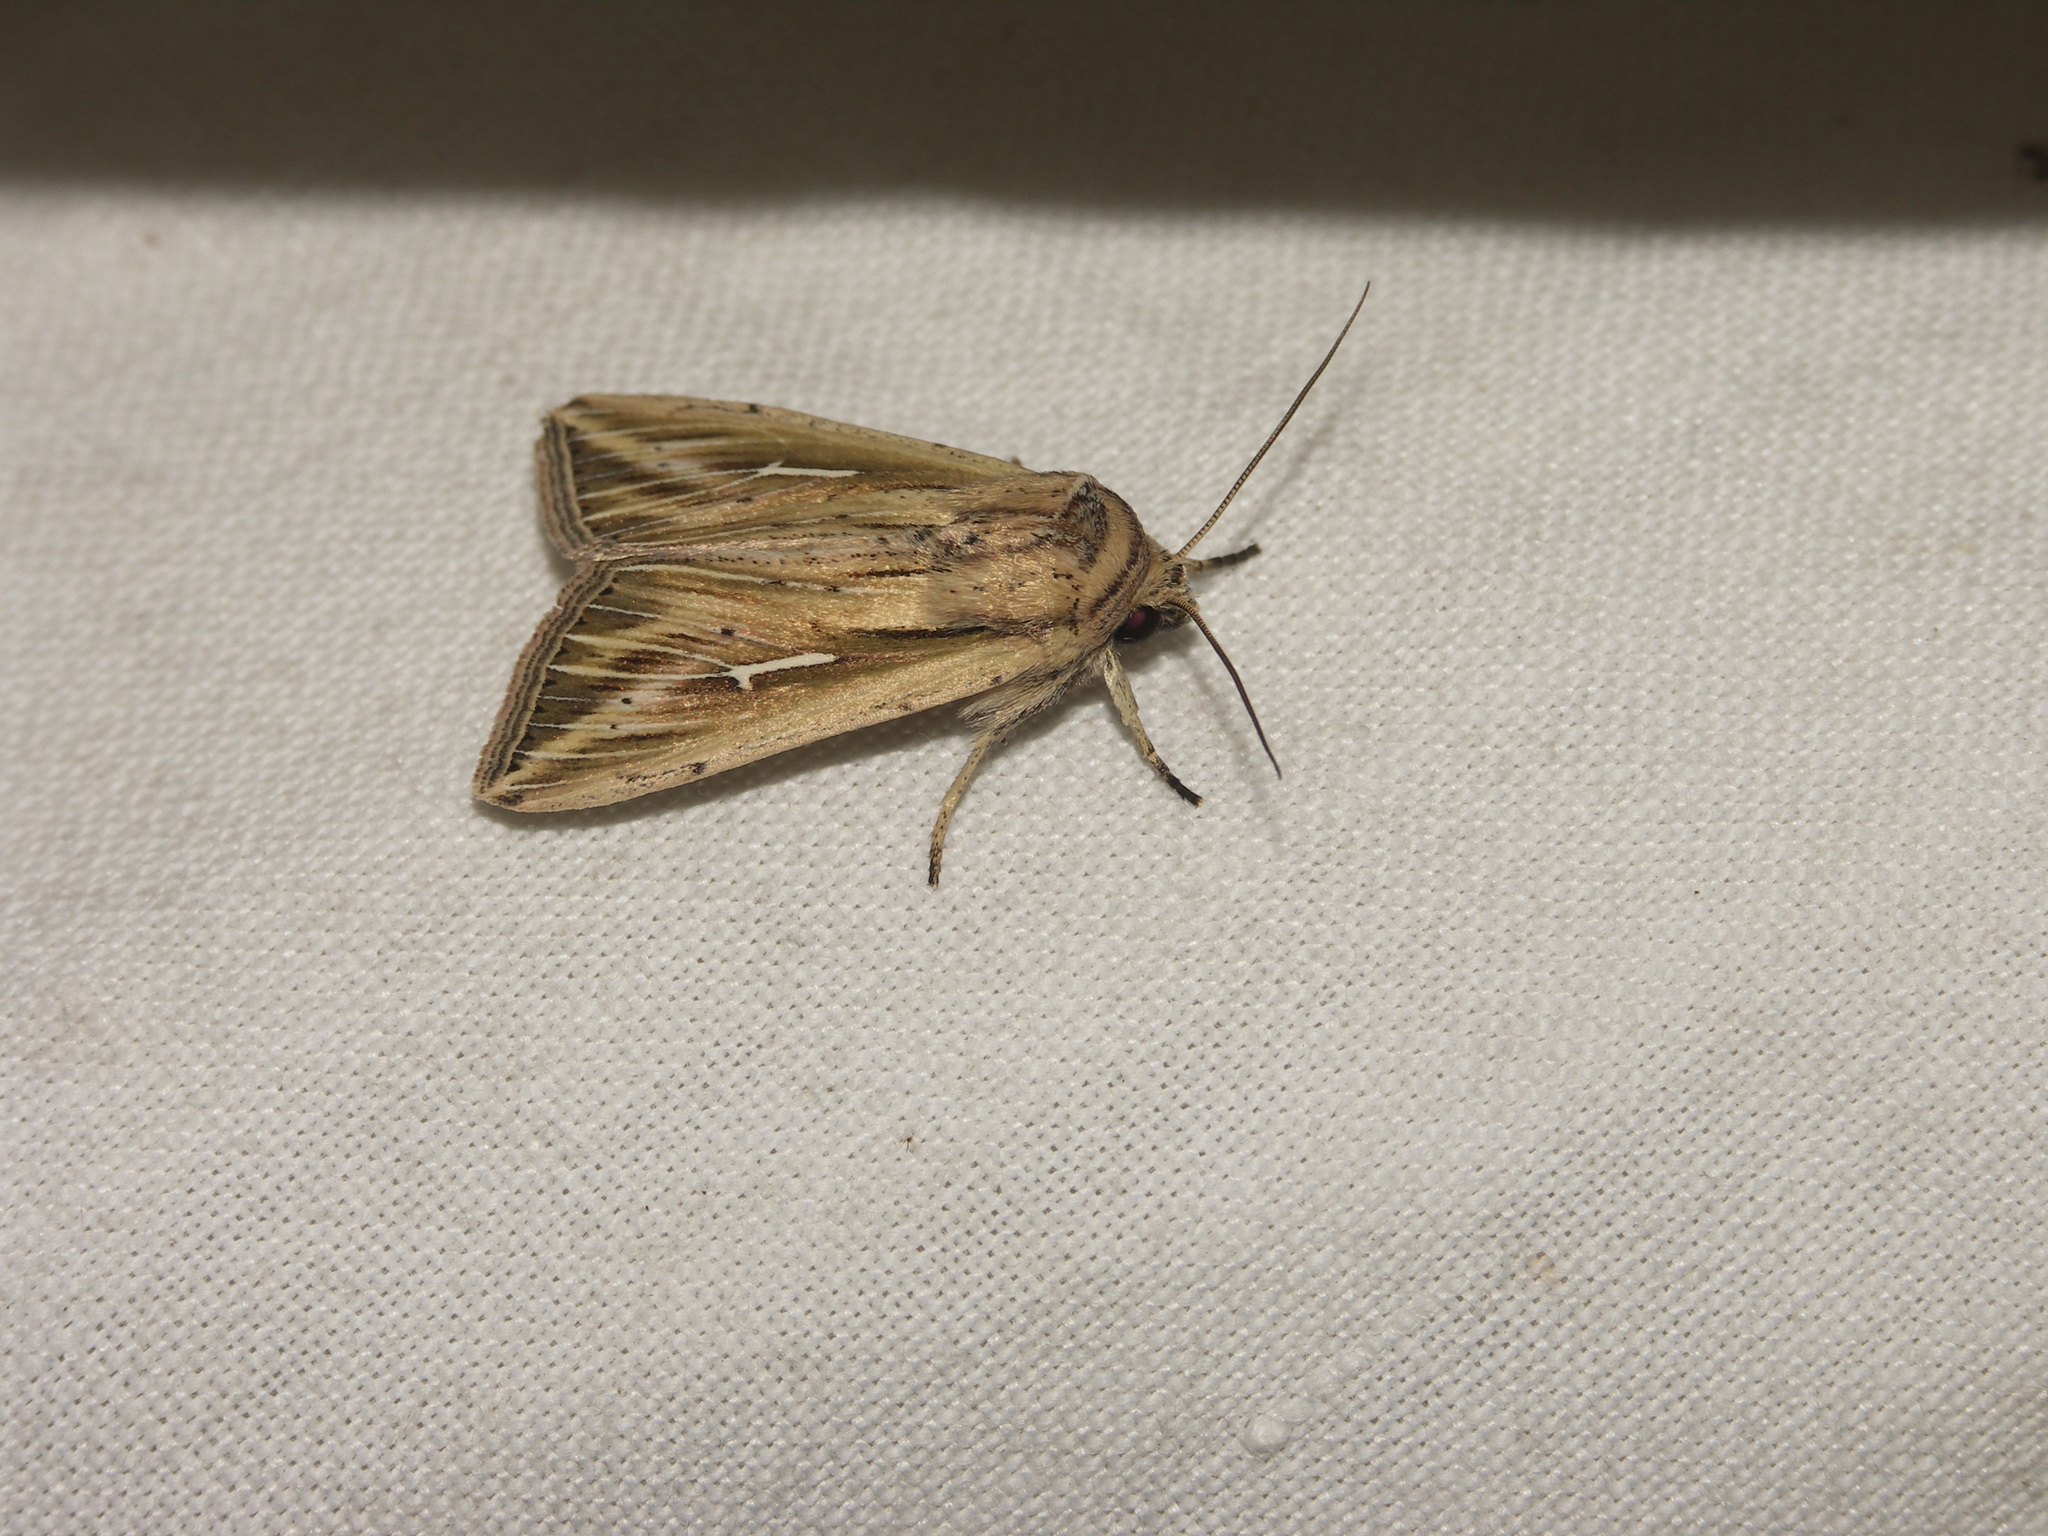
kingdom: Animalia
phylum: Arthropoda
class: Insecta
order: Lepidoptera
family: Noctuidae
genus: Mythimna
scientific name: Mythimna l-album
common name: L-album wainscot
